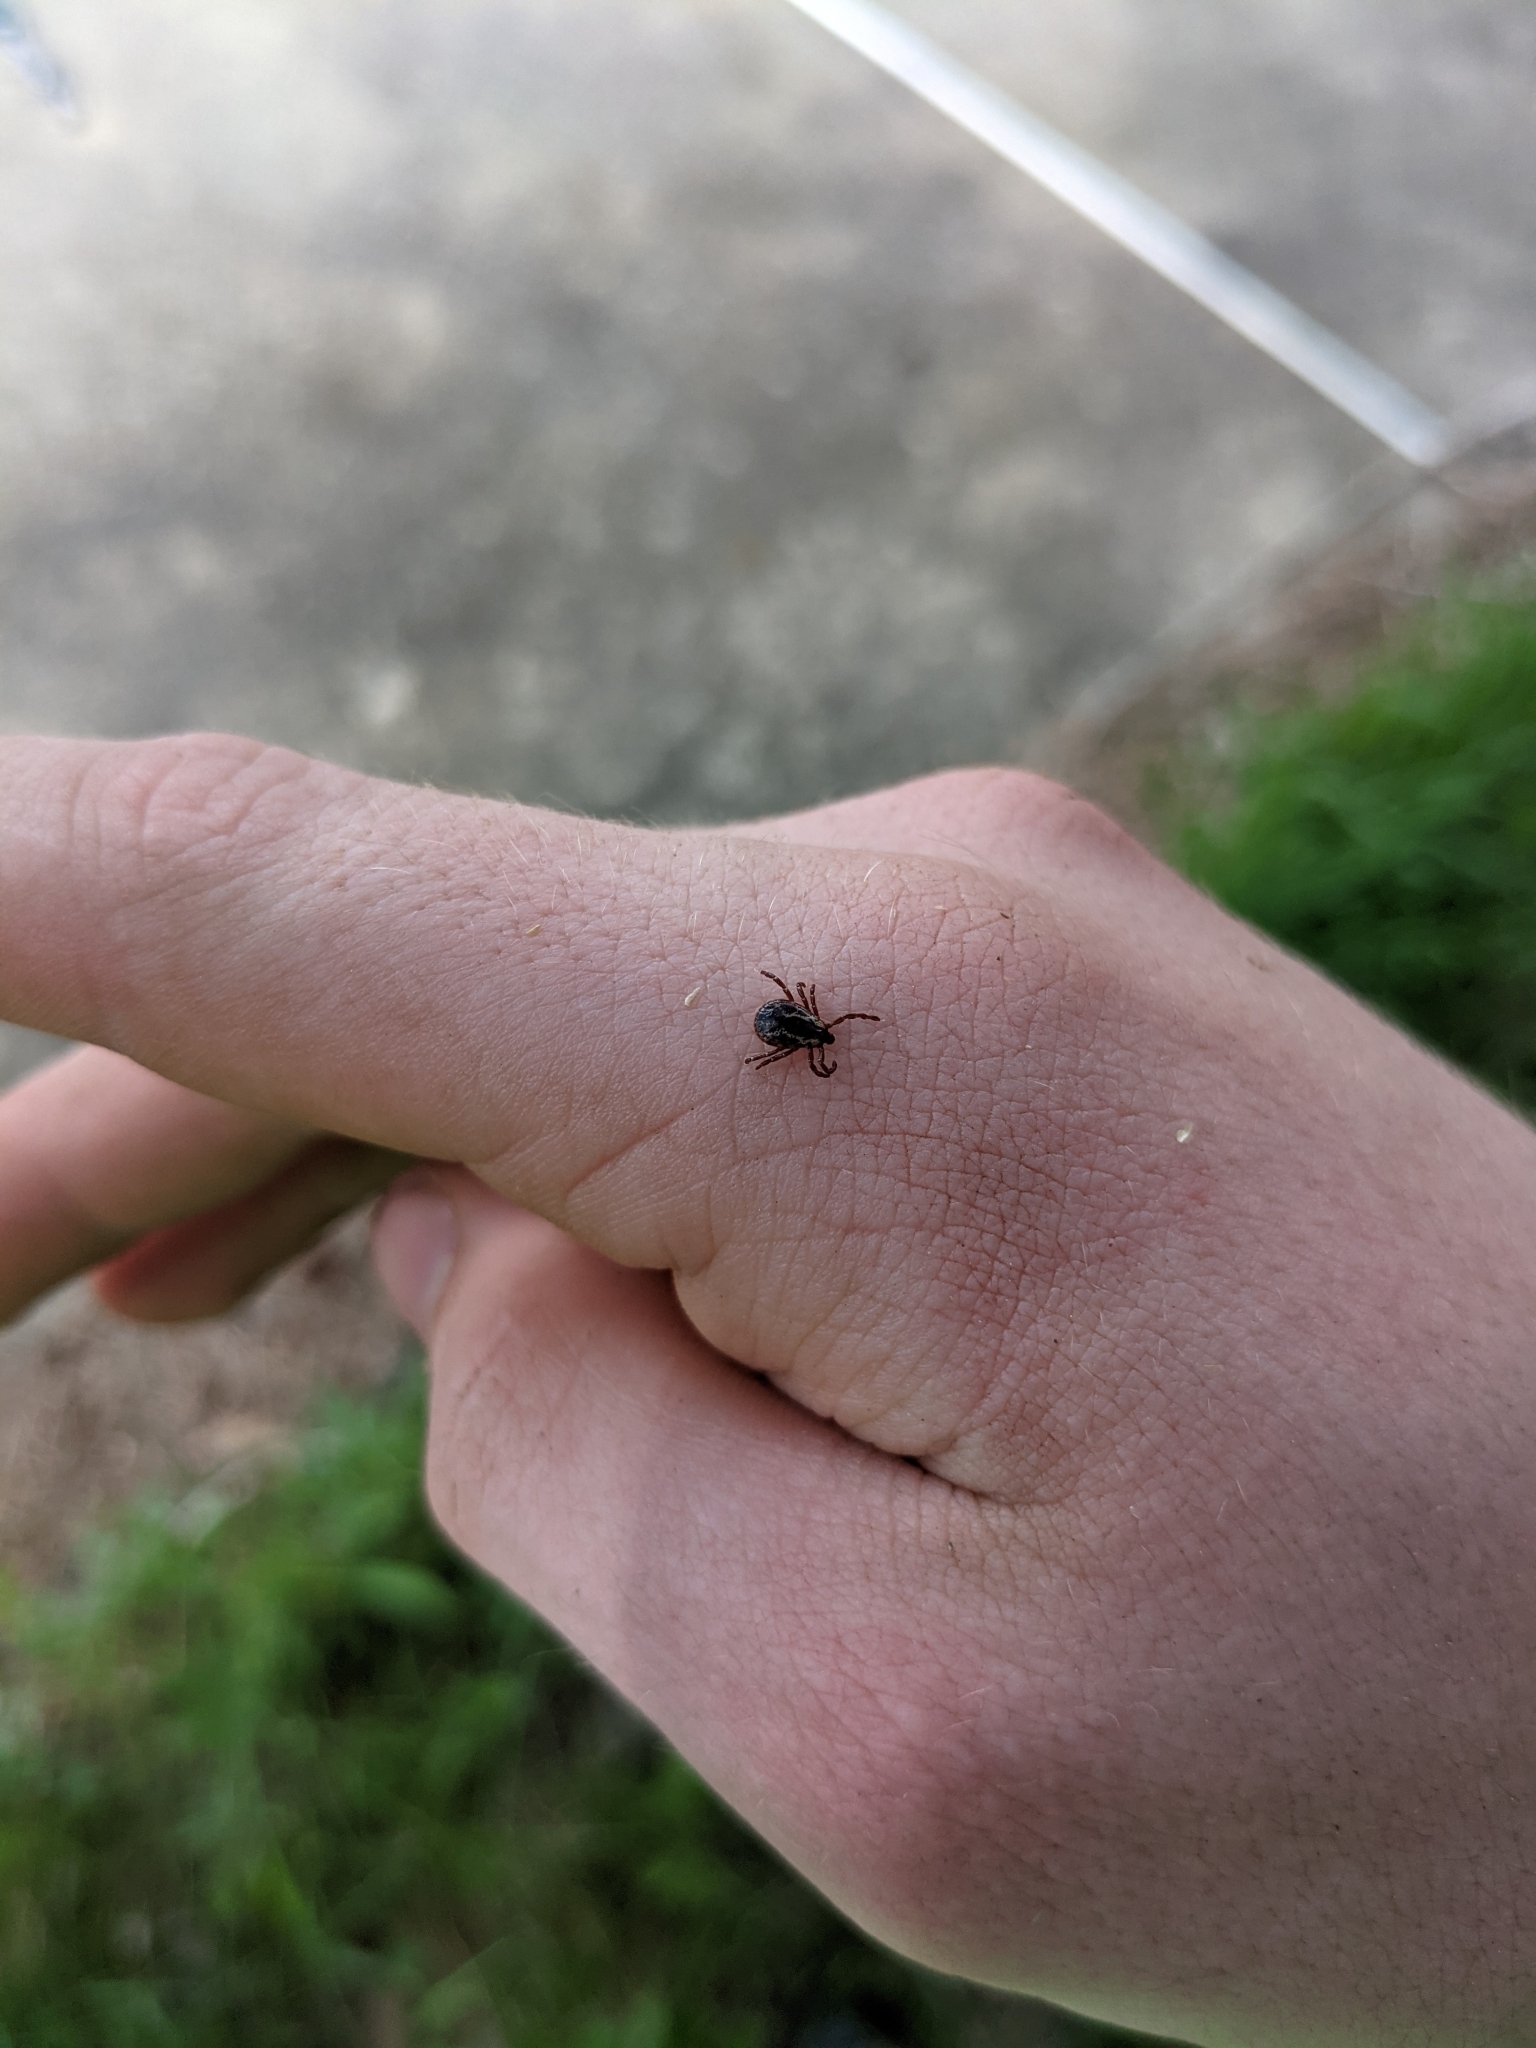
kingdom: Animalia
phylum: Arthropoda
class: Arachnida
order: Ixodida
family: Ixodidae
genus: Dermacentor
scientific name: Dermacentor variabilis
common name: American dog tick
